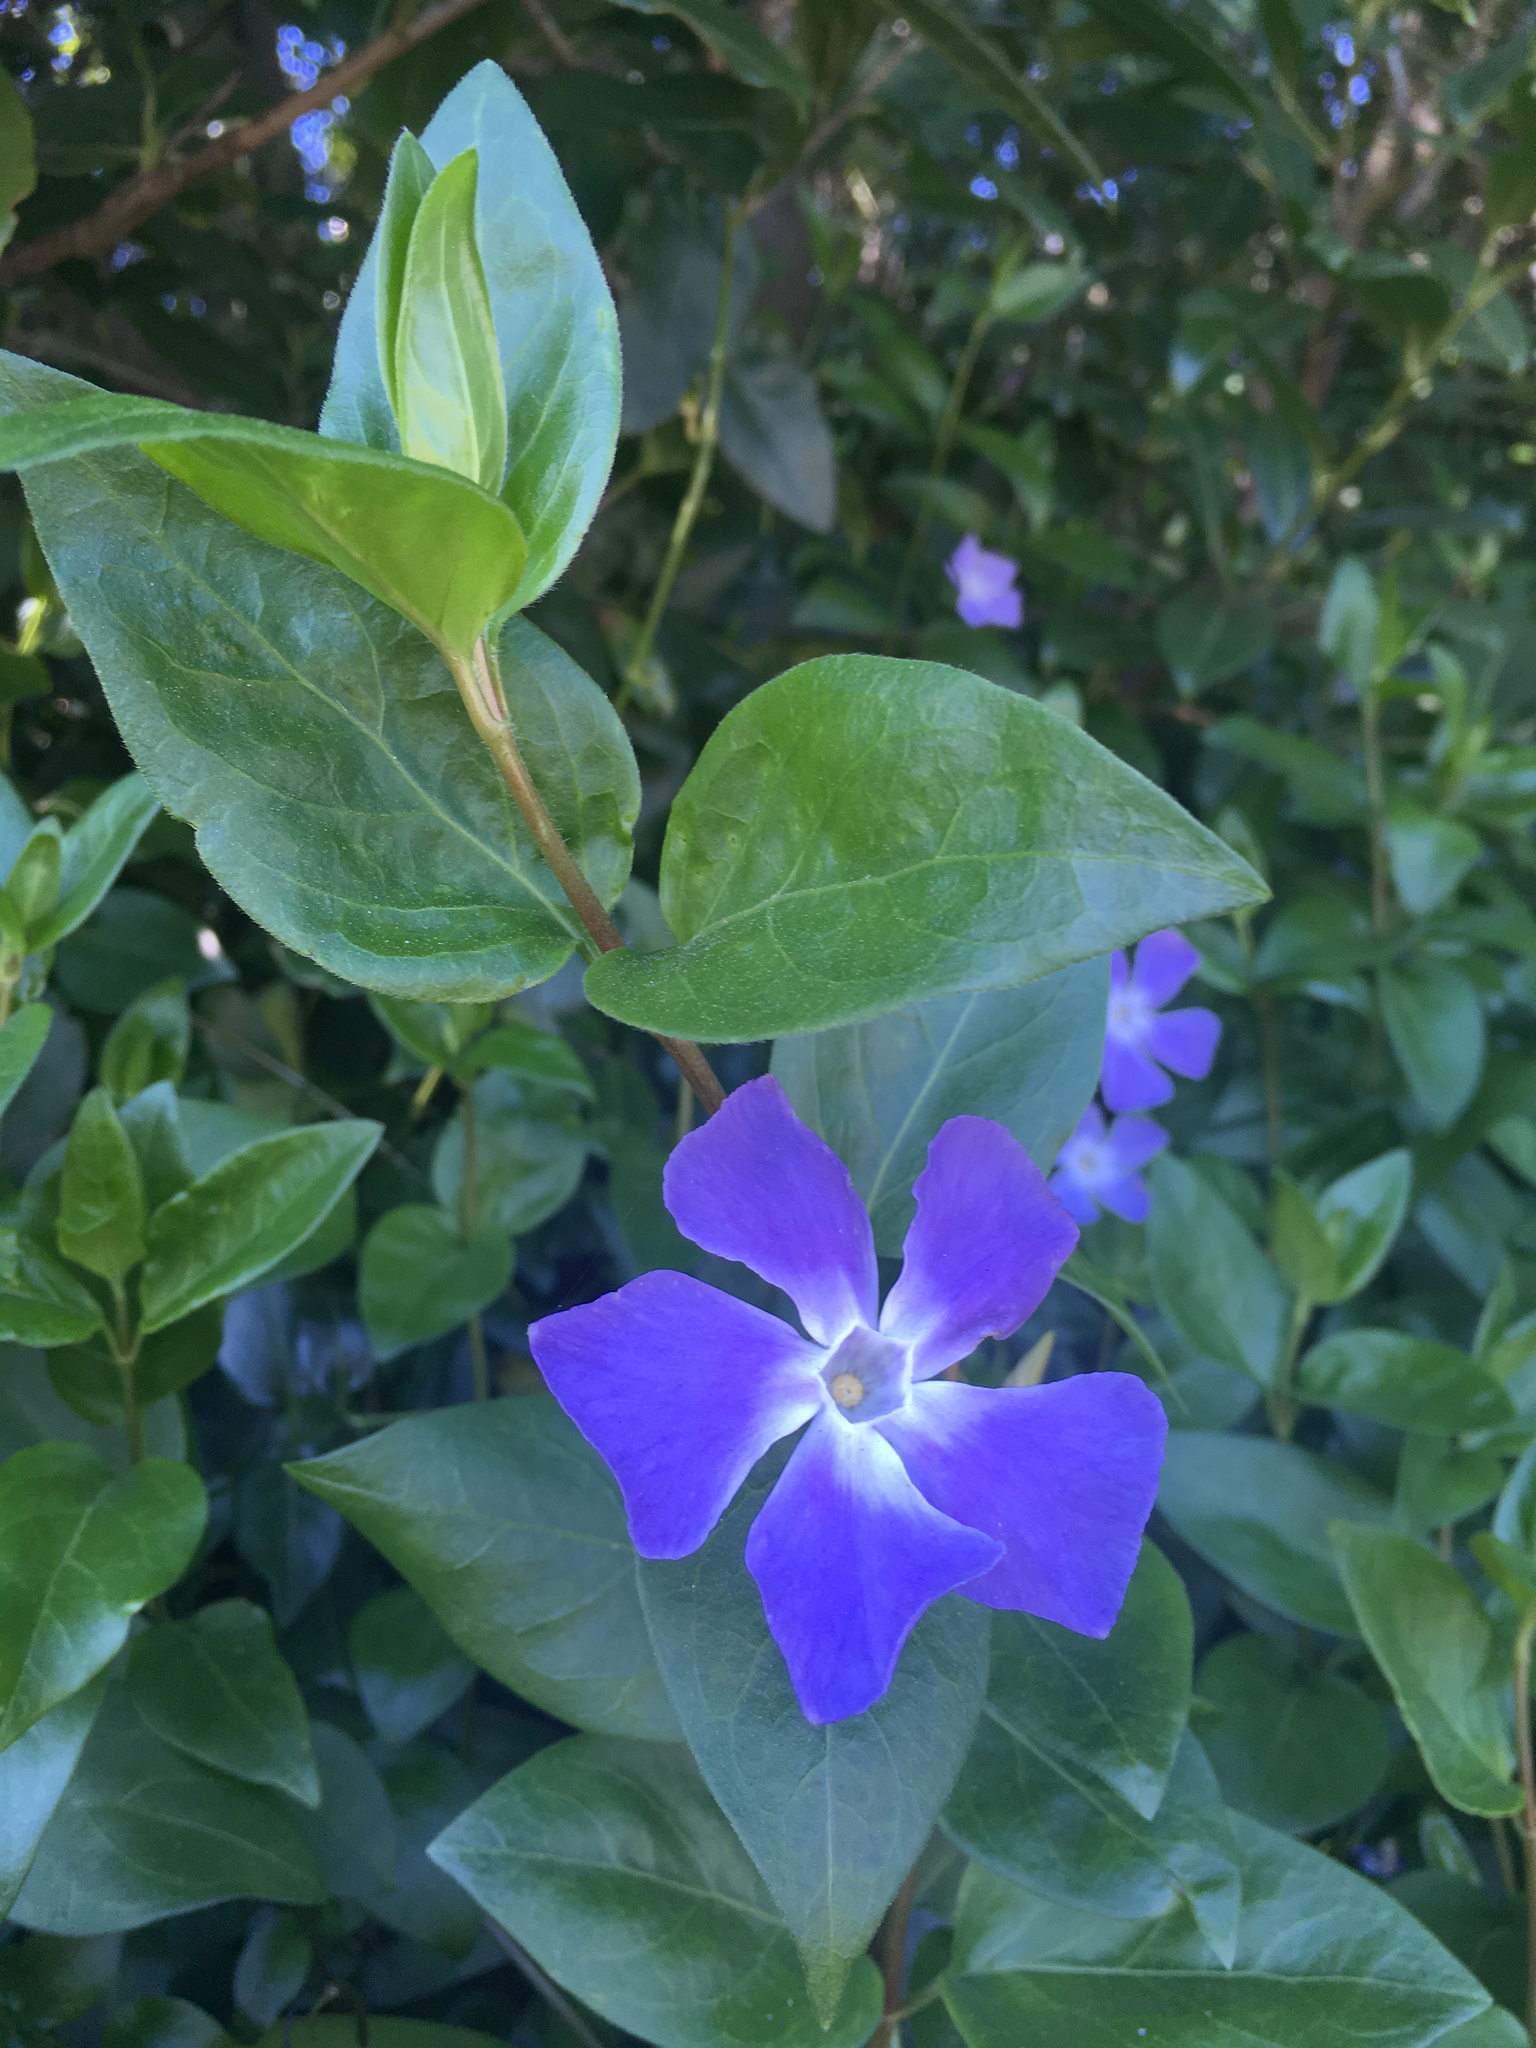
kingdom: Plantae
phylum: Tracheophyta
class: Magnoliopsida
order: Gentianales
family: Apocynaceae
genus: Vinca
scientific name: Vinca major
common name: Greater periwinkle
